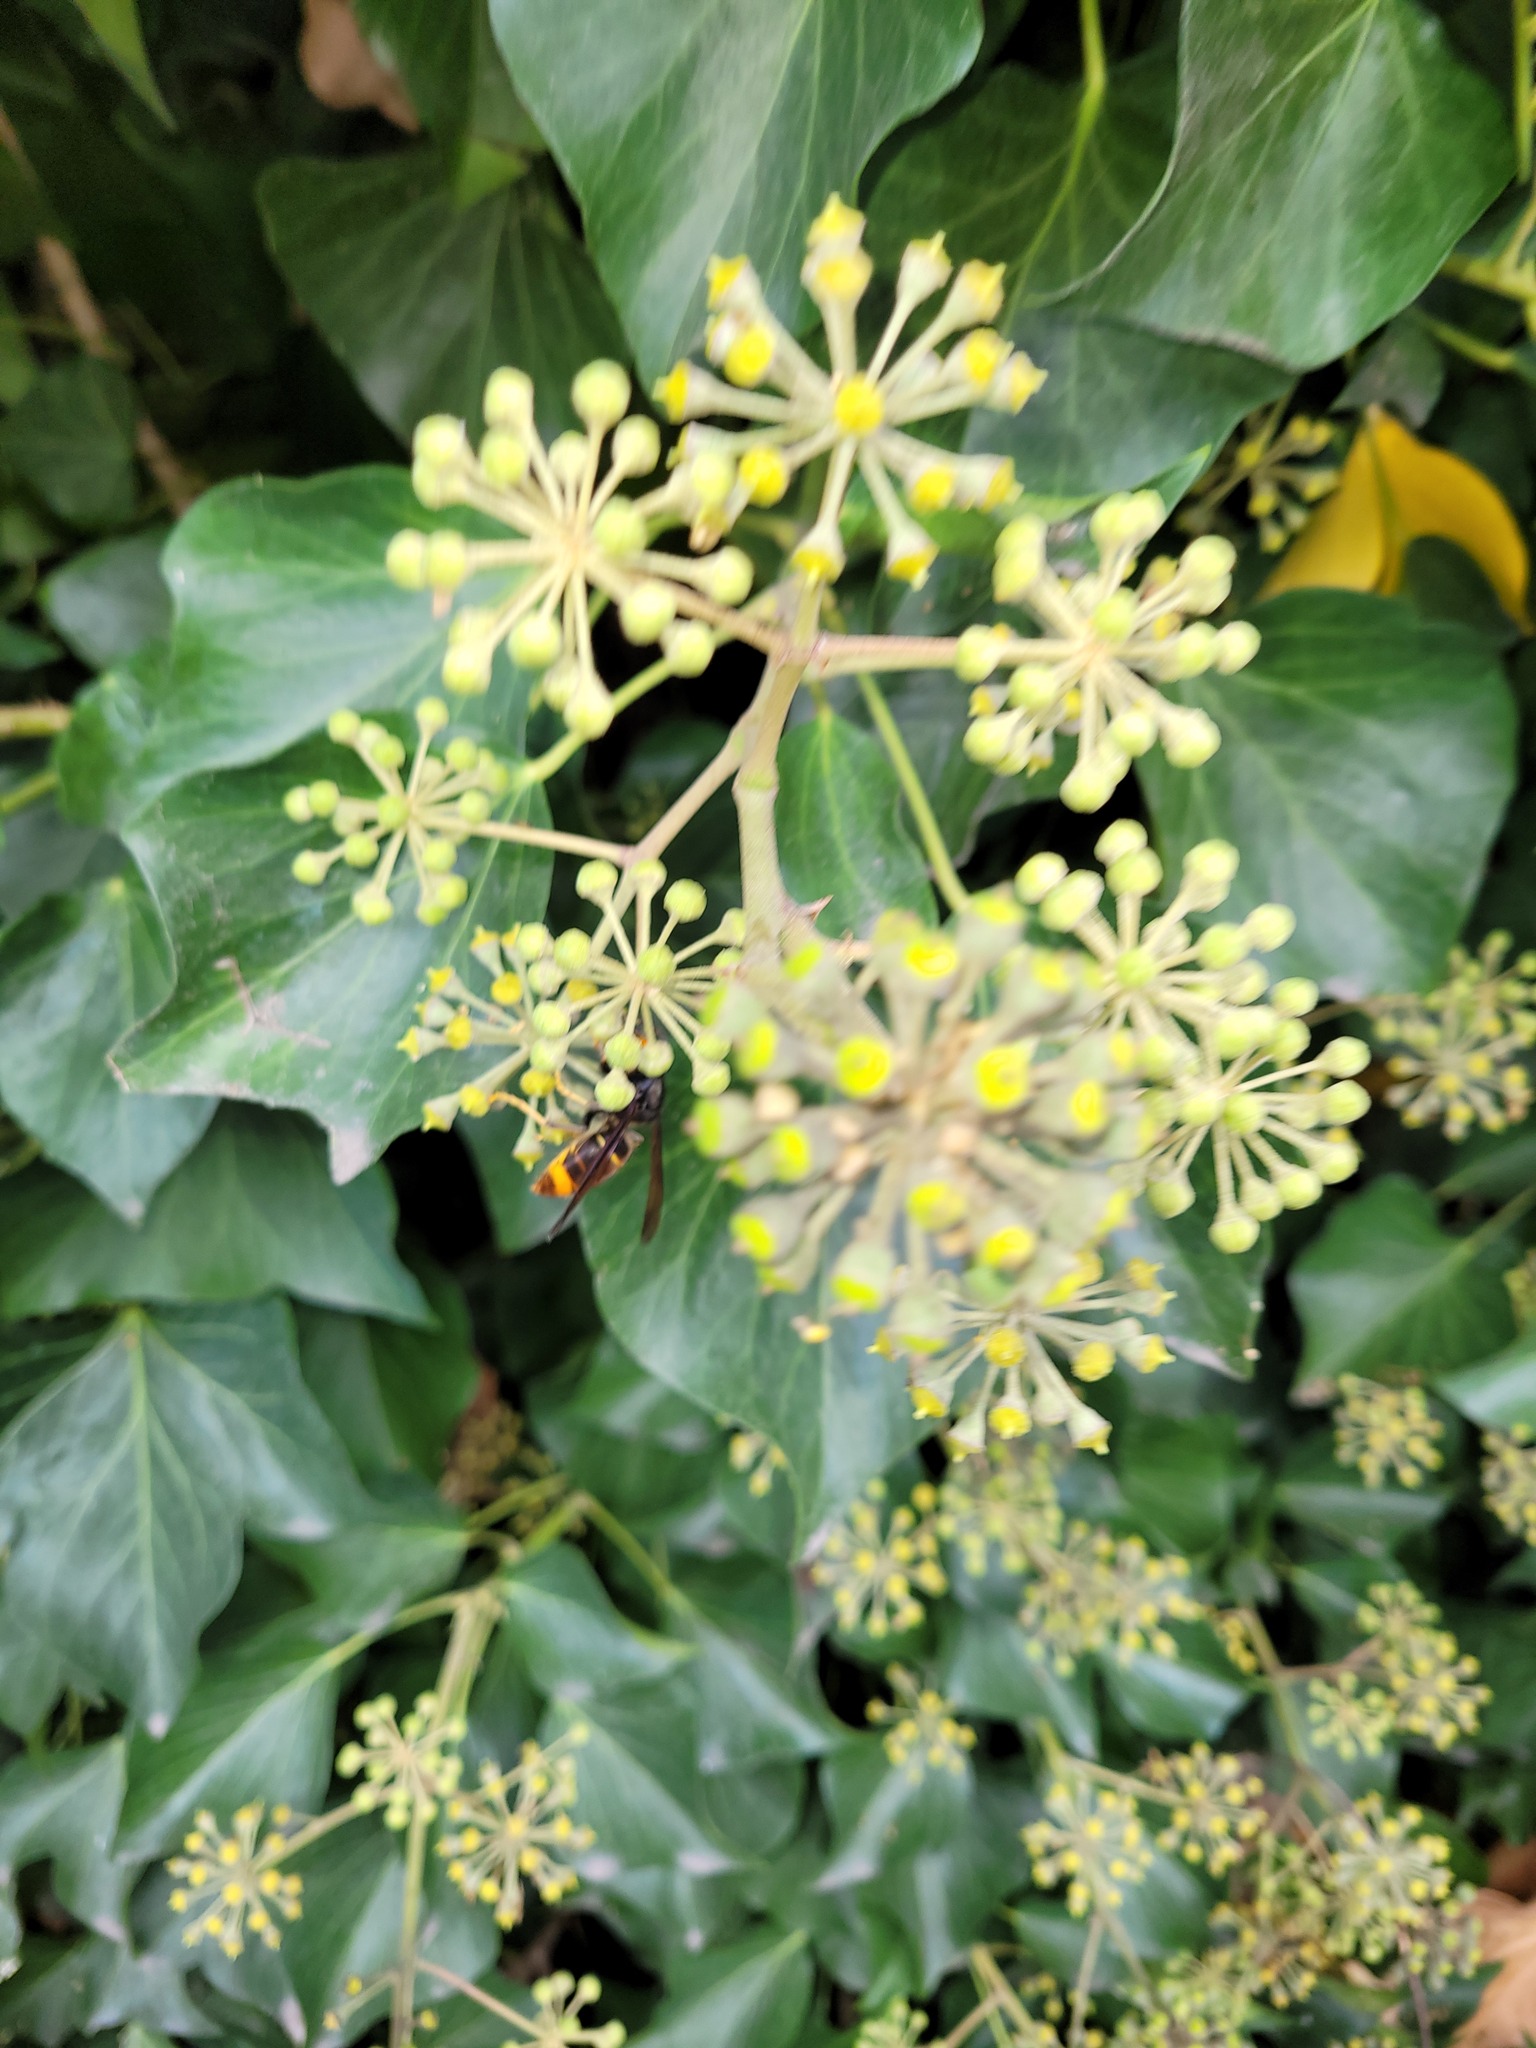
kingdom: Animalia
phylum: Arthropoda
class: Insecta
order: Hymenoptera
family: Vespidae
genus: Vespa
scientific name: Vespa velutina
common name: Asian hornet
